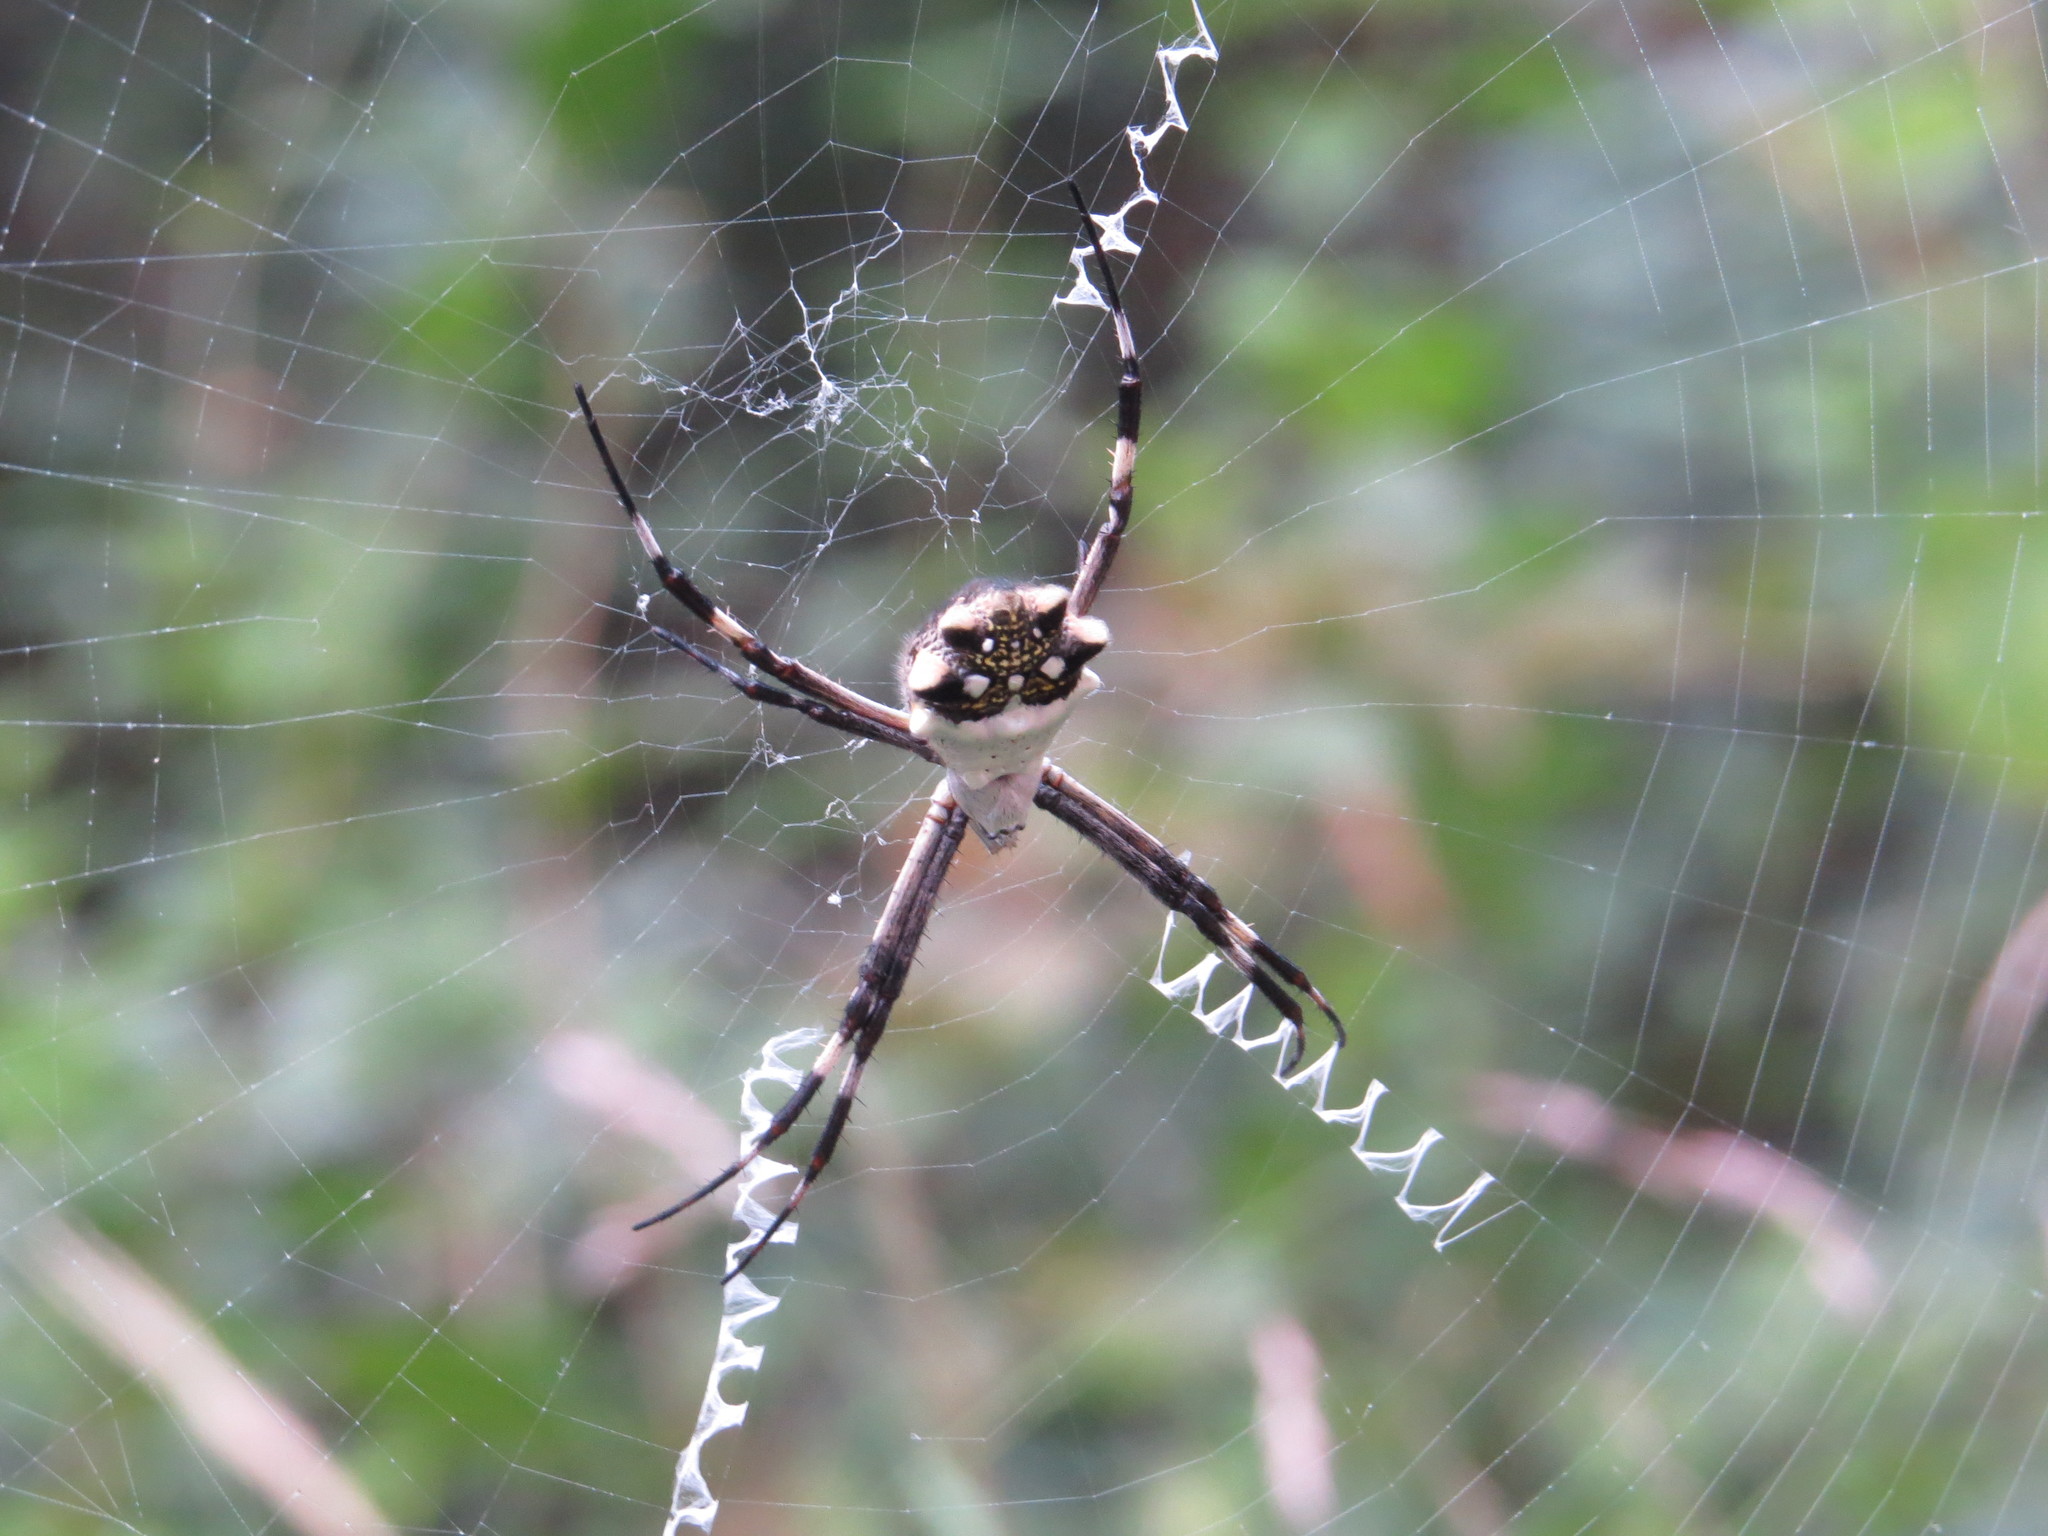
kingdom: Animalia
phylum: Arthropoda
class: Arachnida
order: Araneae
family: Araneidae
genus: Argiope
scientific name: Argiope argentata
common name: Orb weavers
